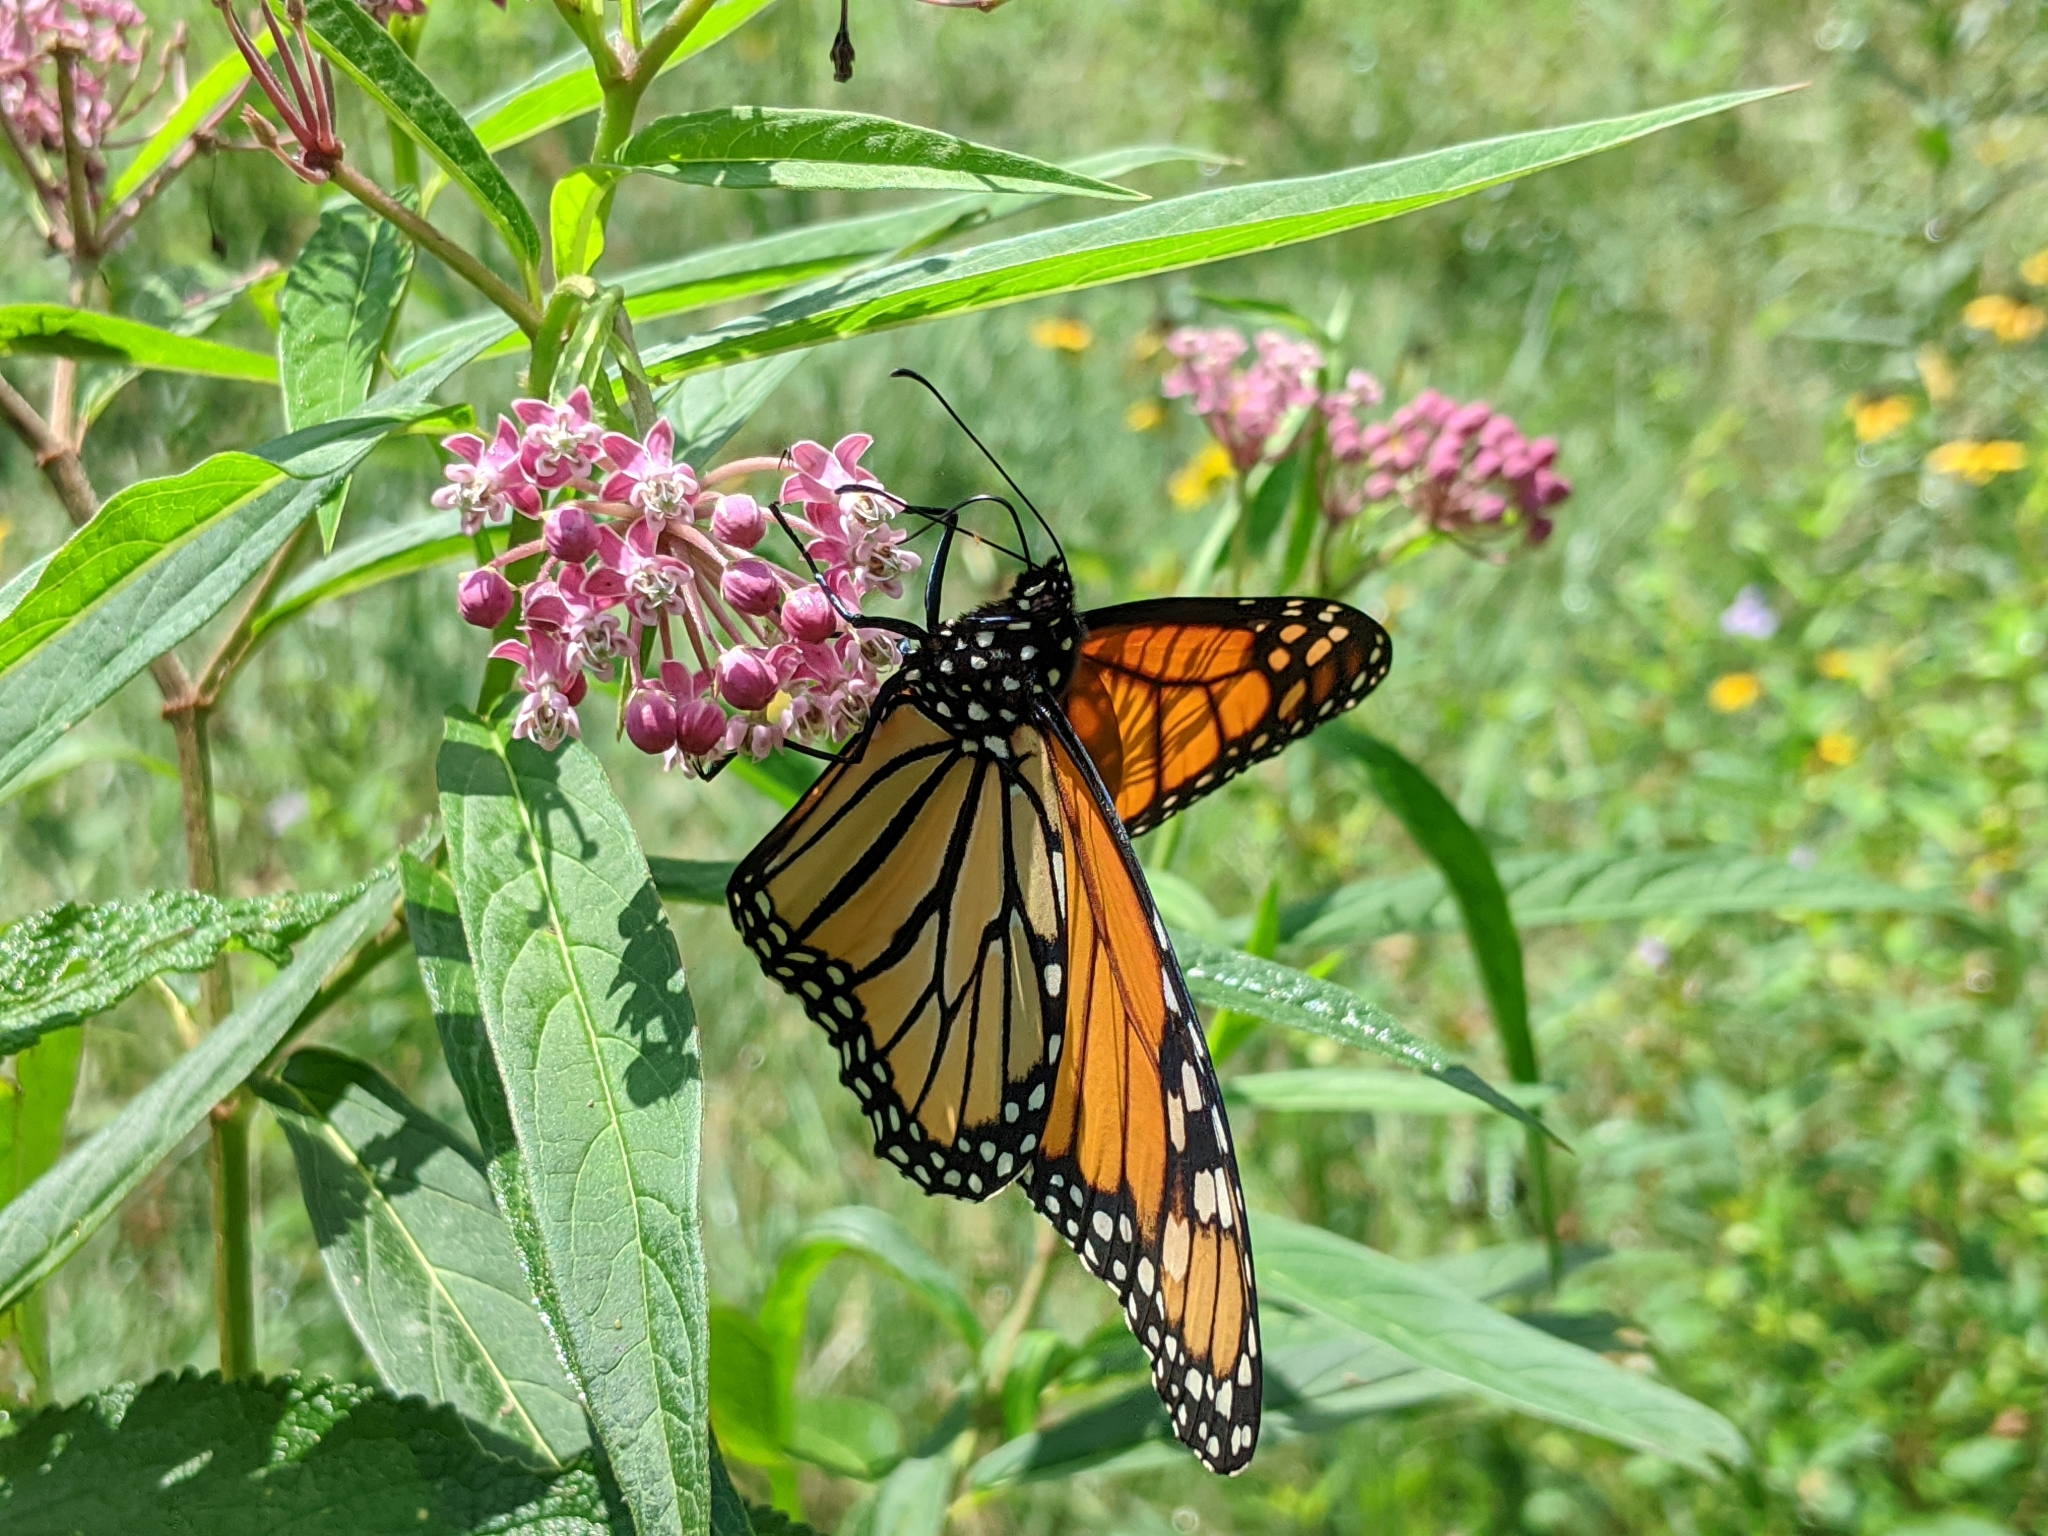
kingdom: Animalia
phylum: Arthropoda
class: Insecta
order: Lepidoptera
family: Nymphalidae
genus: Danaus
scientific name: Danaus plexippus
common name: Monarch
